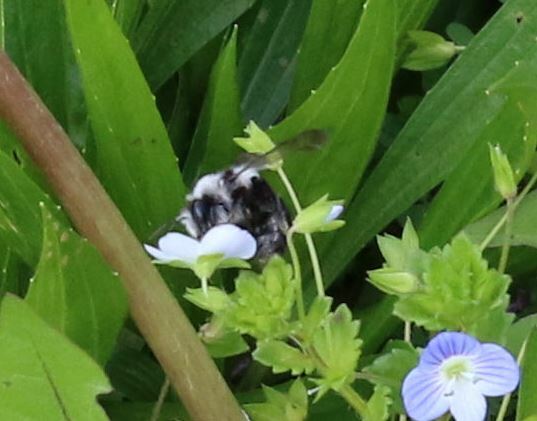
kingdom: Animalia
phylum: Arthropoda
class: Insecta
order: Hymenoptera
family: Andrenidae
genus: Andrena
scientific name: Andrena cineraria
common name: Ashy mining bee
